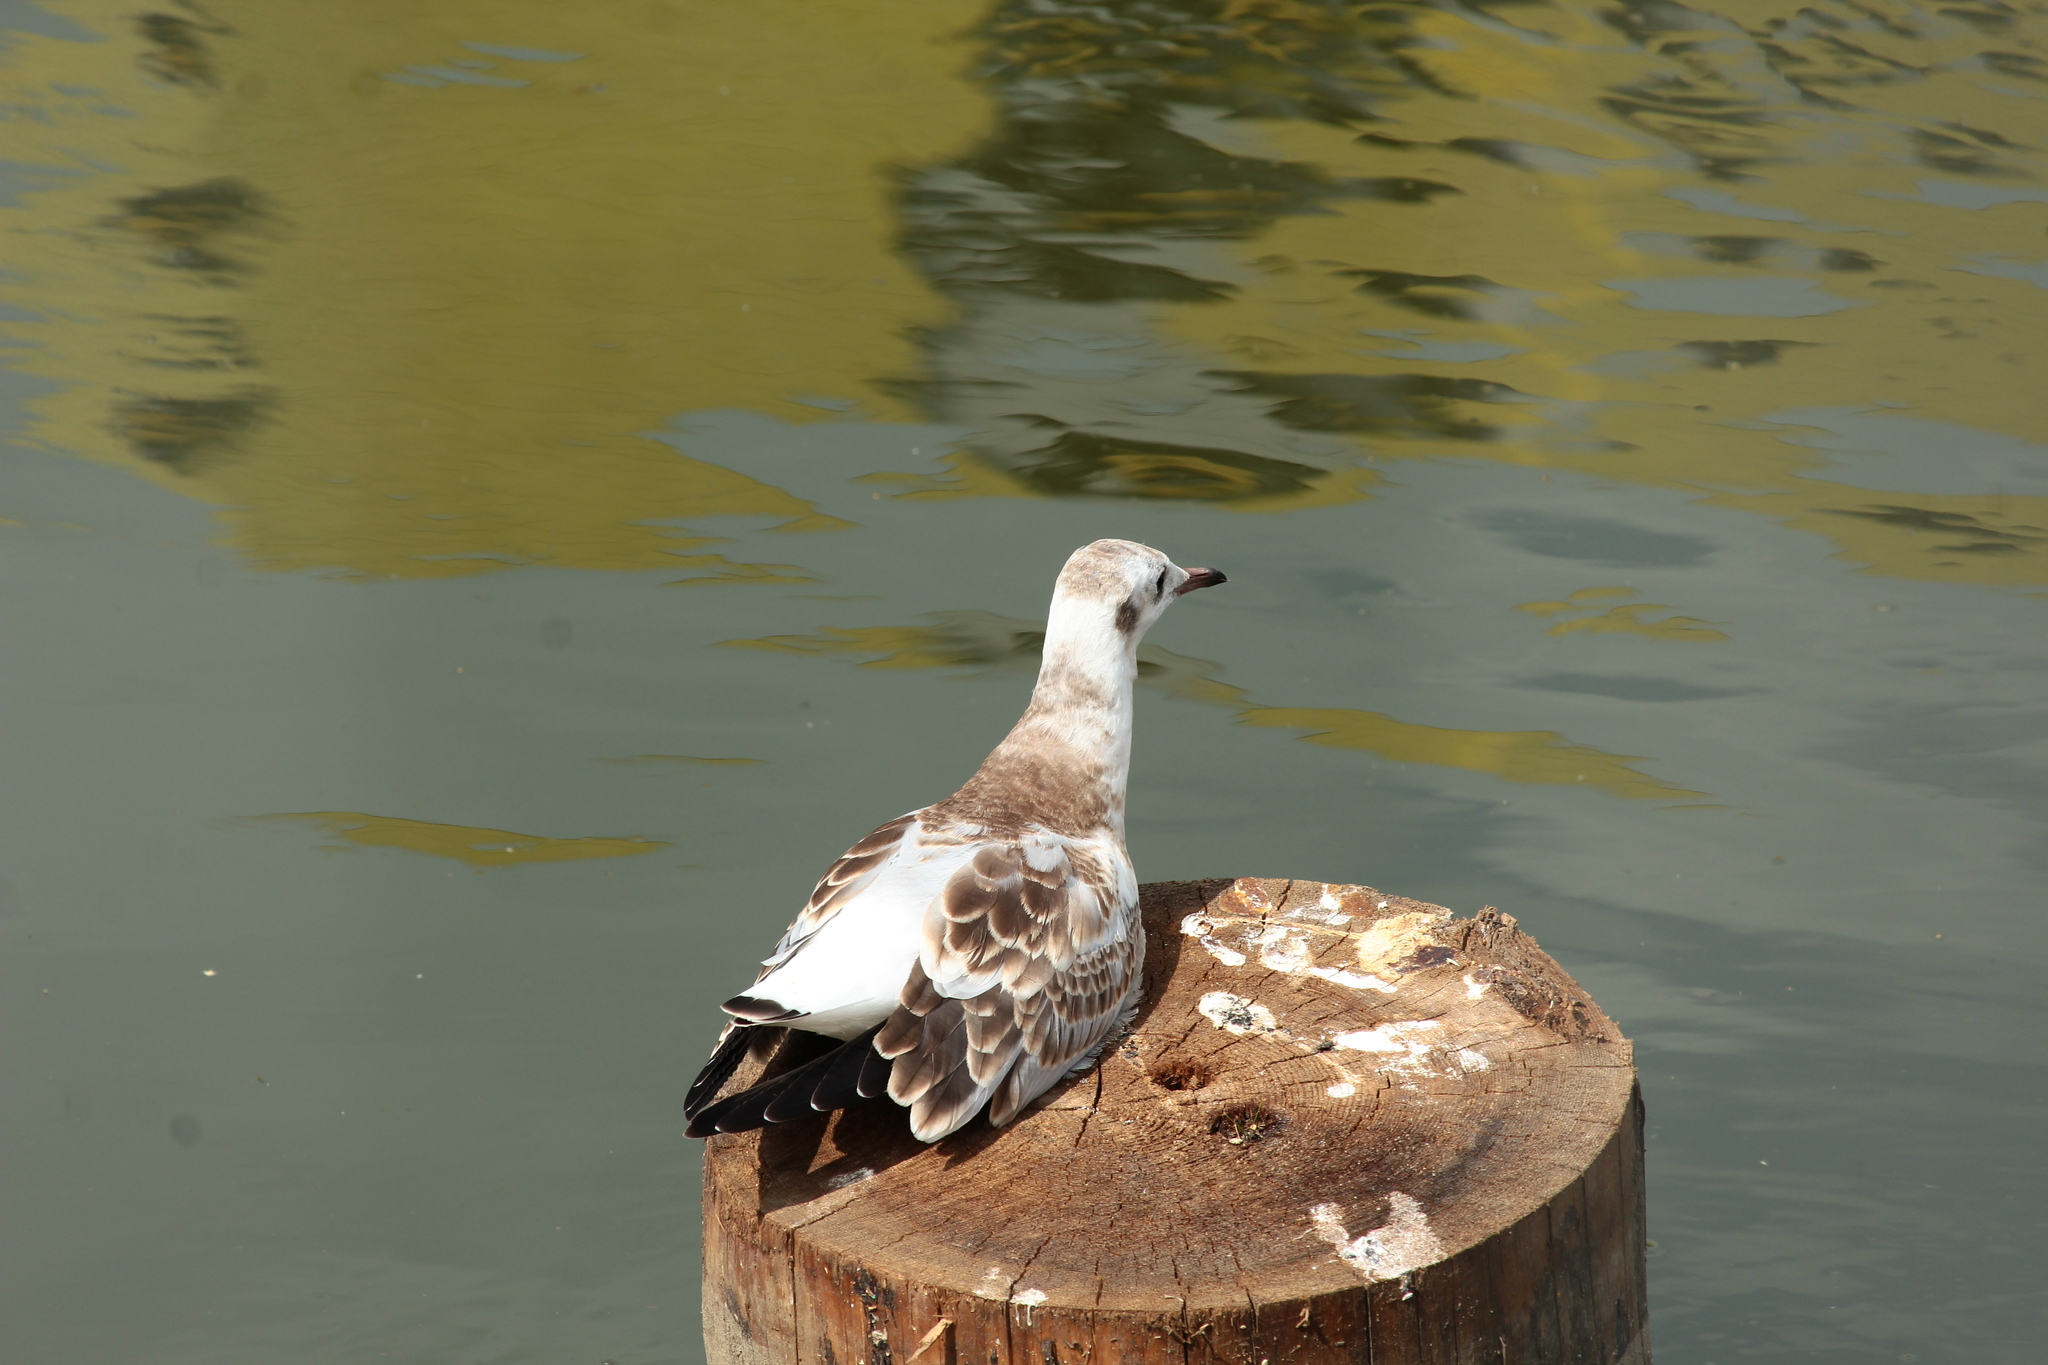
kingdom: Animalia
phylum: Chordata
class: Aves
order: Charadriiformes
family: Laridae
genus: Chroicocephalus
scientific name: Chroicocephalus ridibundus
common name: Black-headed gull
